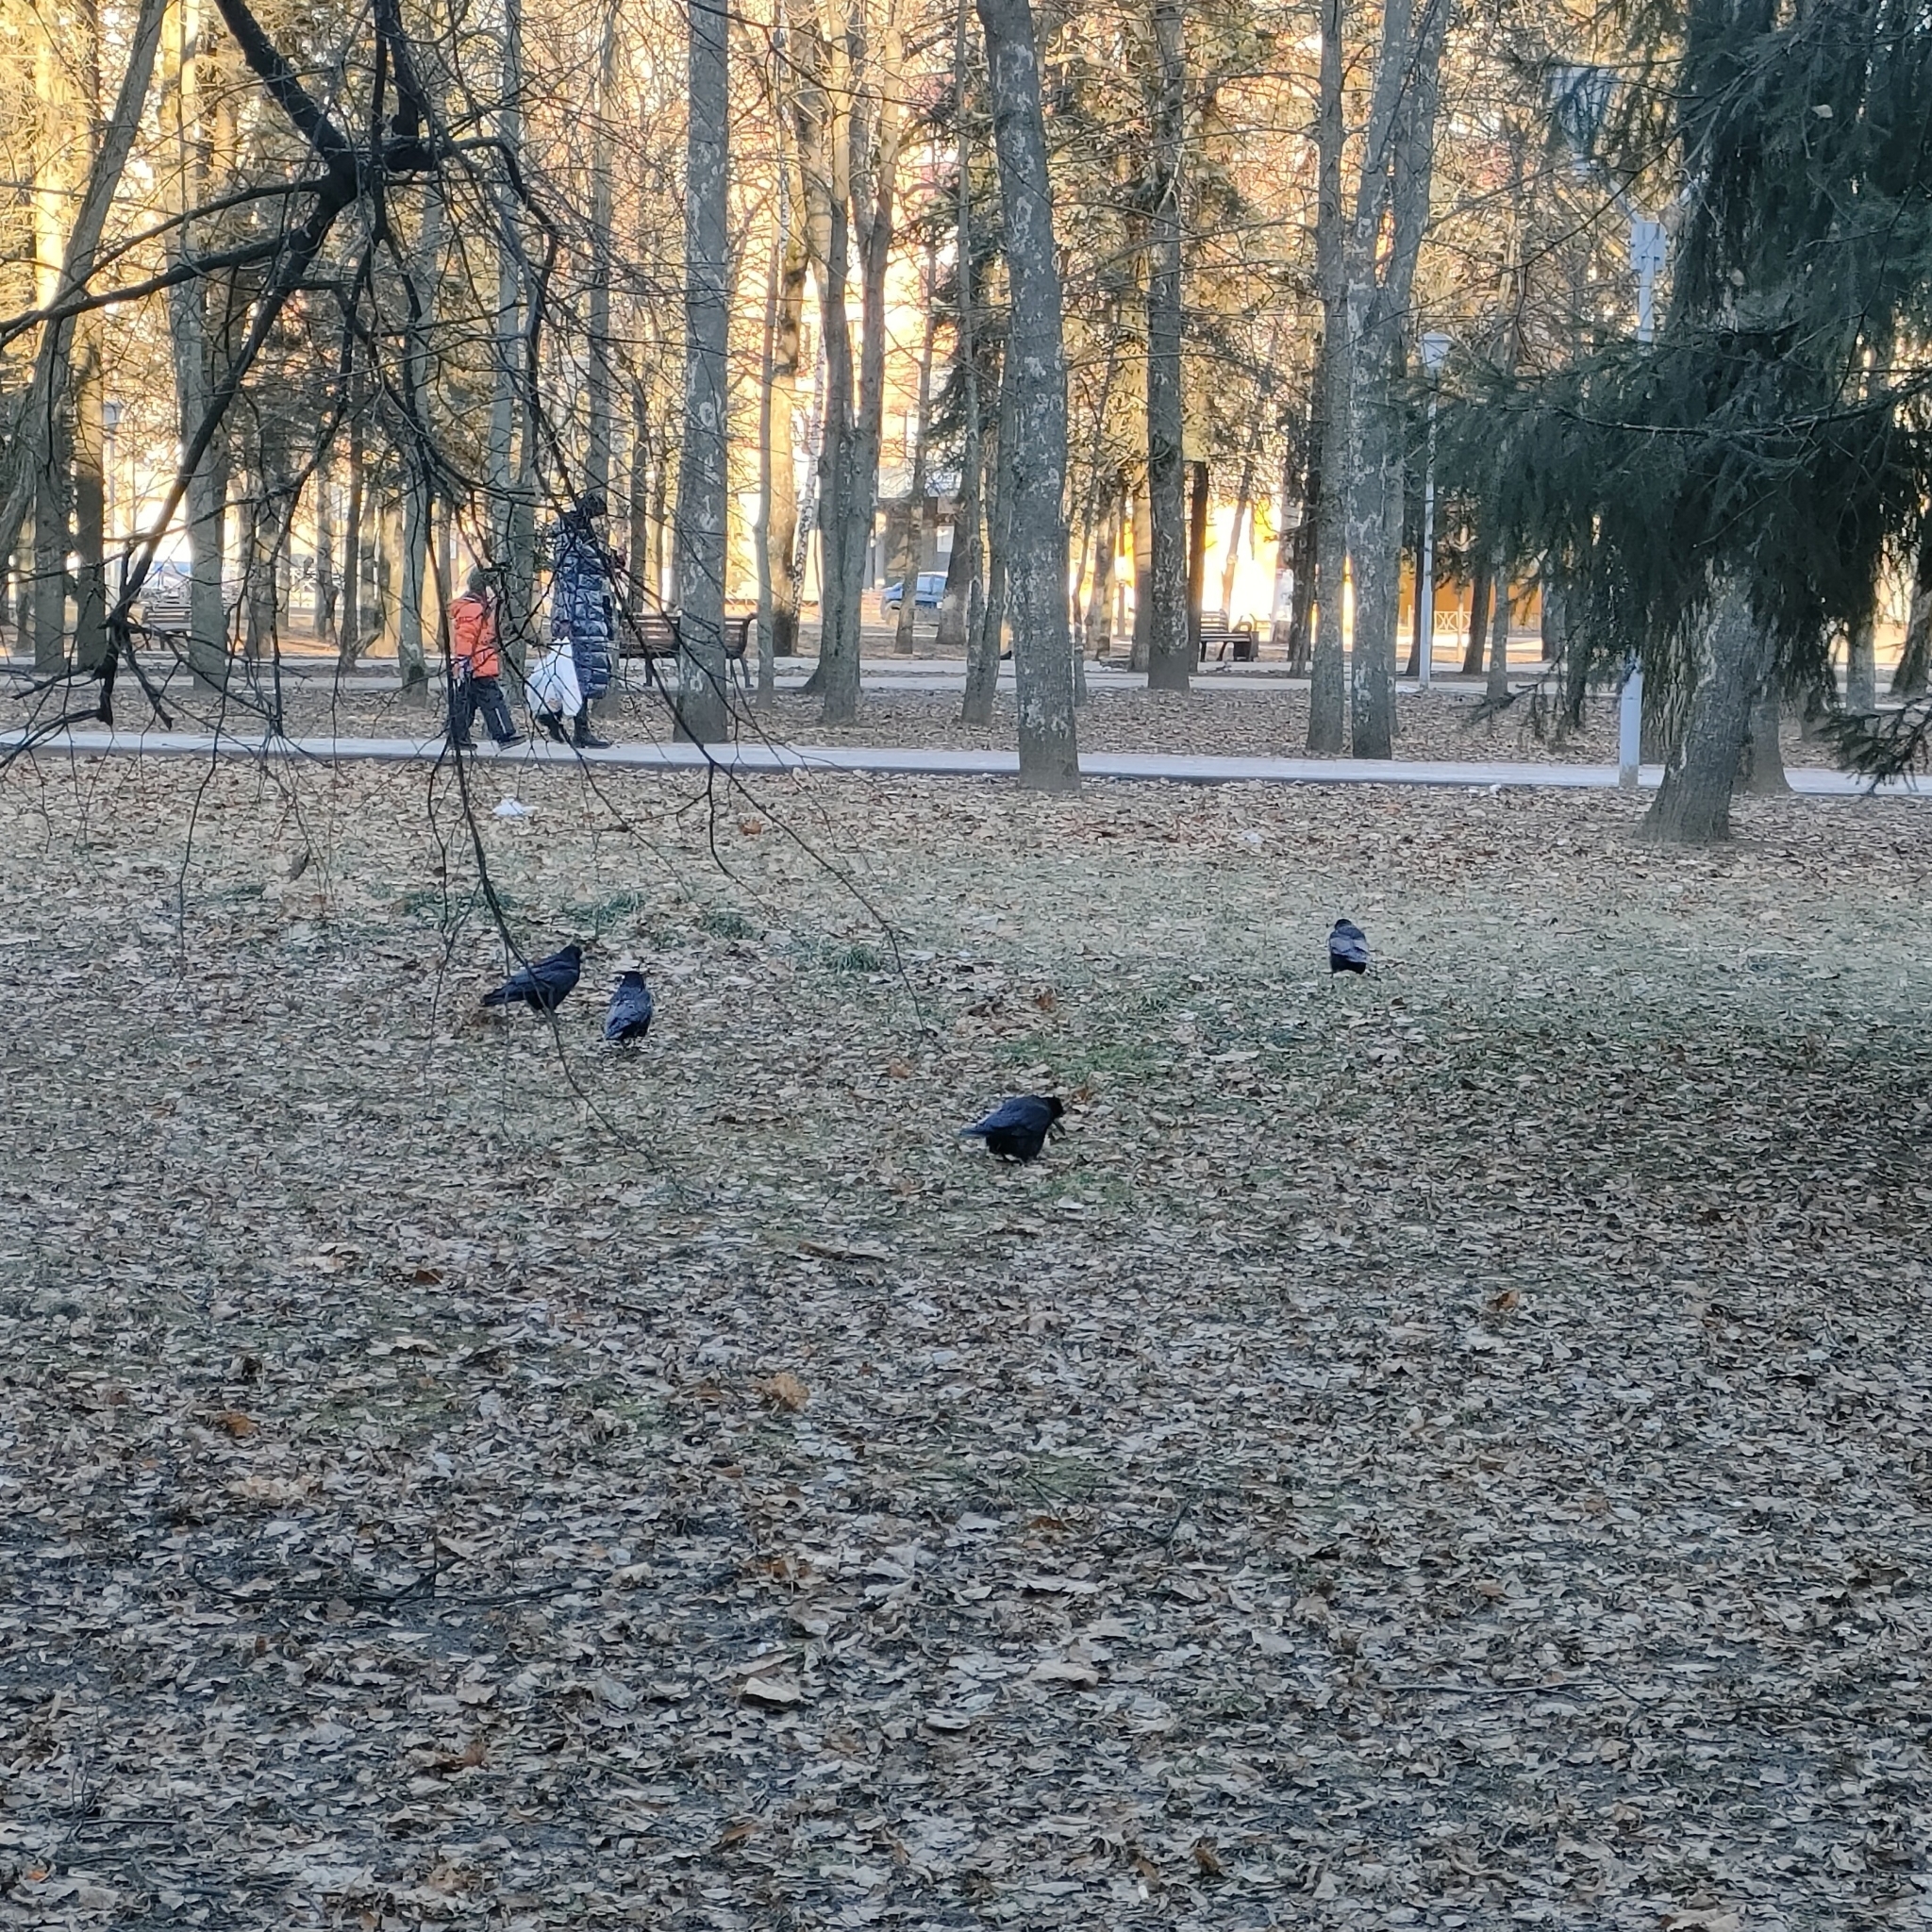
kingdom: Animalia
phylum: Chordata
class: Aves
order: Passeriformes
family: Corvidae
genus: Corvus
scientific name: Corvus frugilegus
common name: Rook
